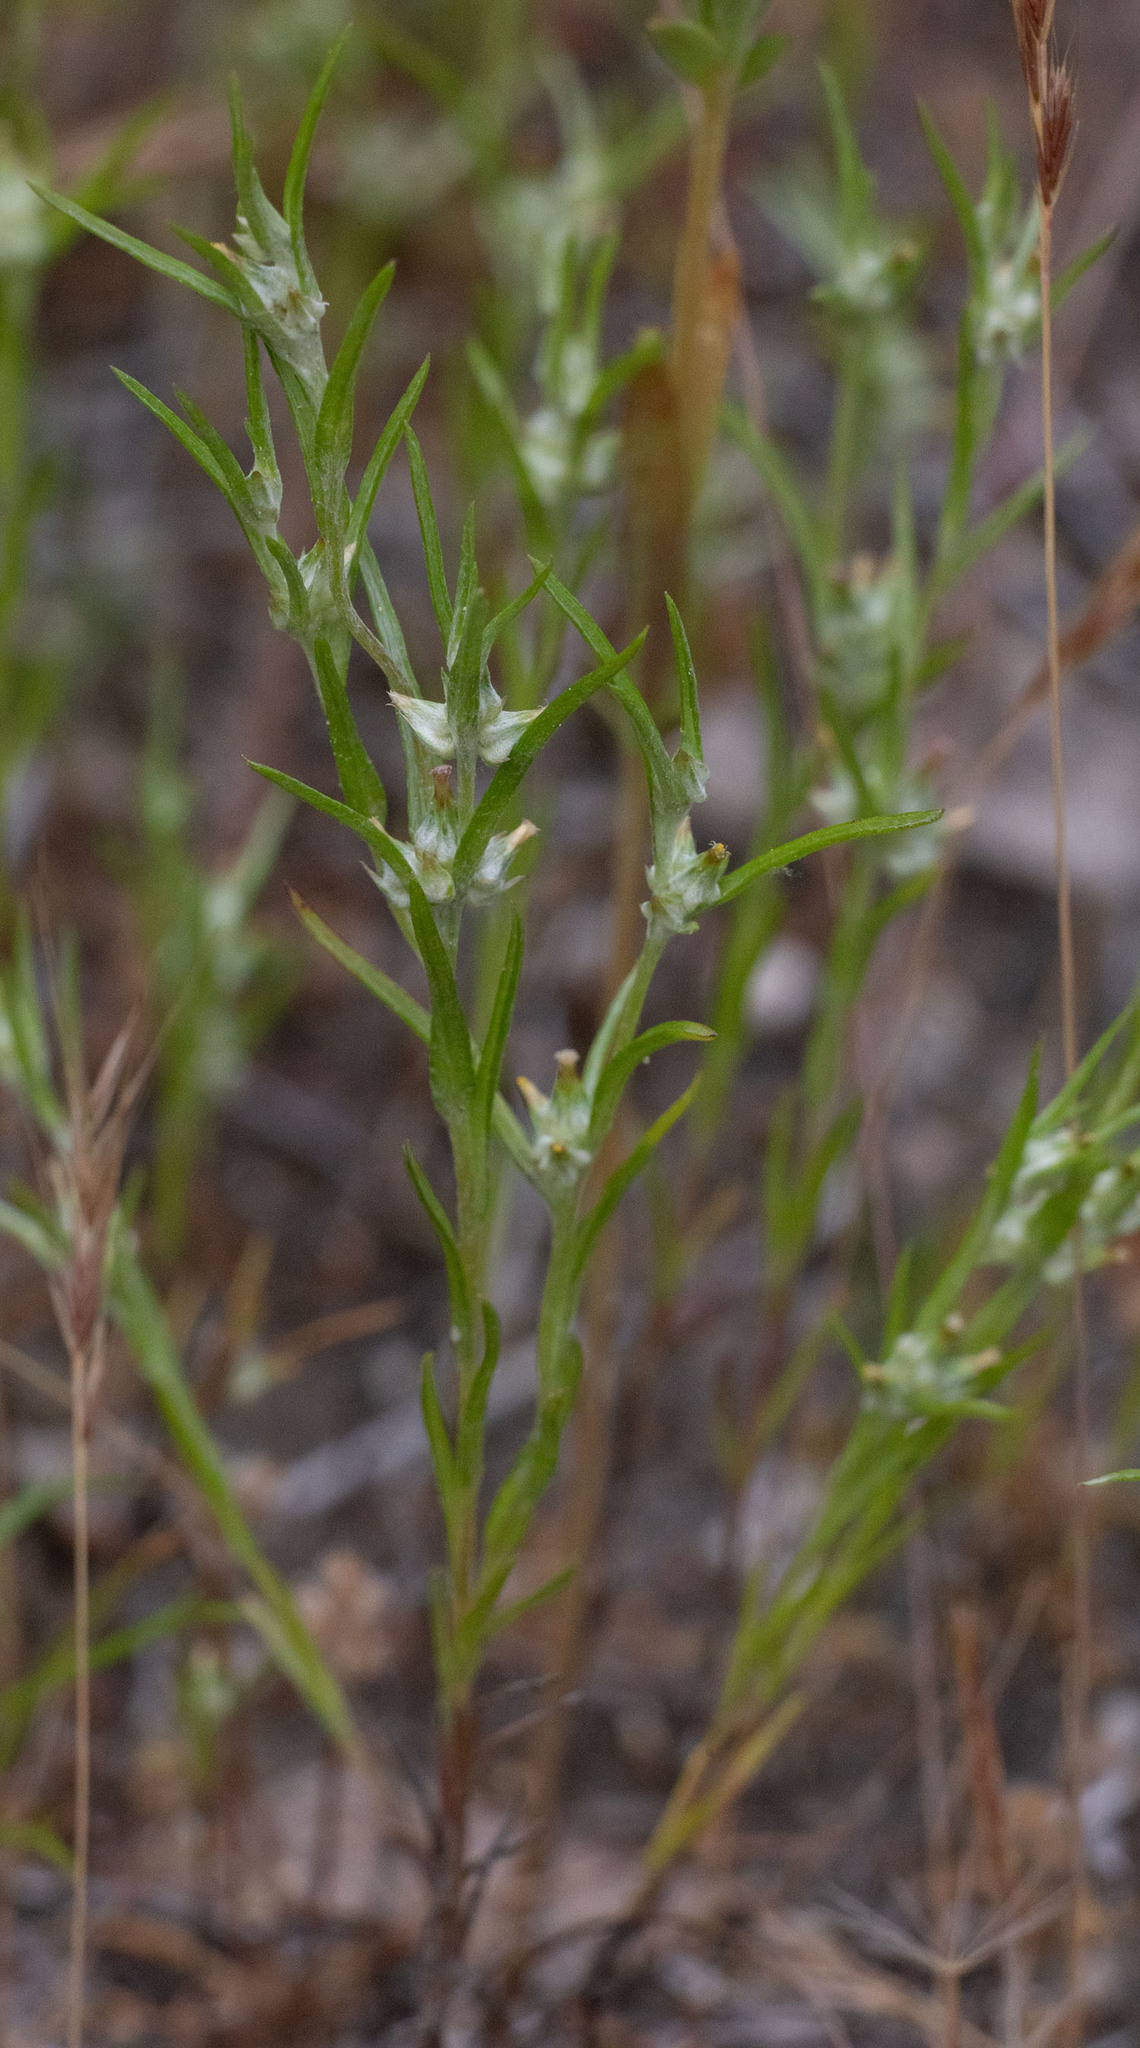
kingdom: Plantae
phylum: Tracheophyta
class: Magnoliopsida
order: Asterales
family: Asteraceae
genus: Logfia
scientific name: Logfia gallica
